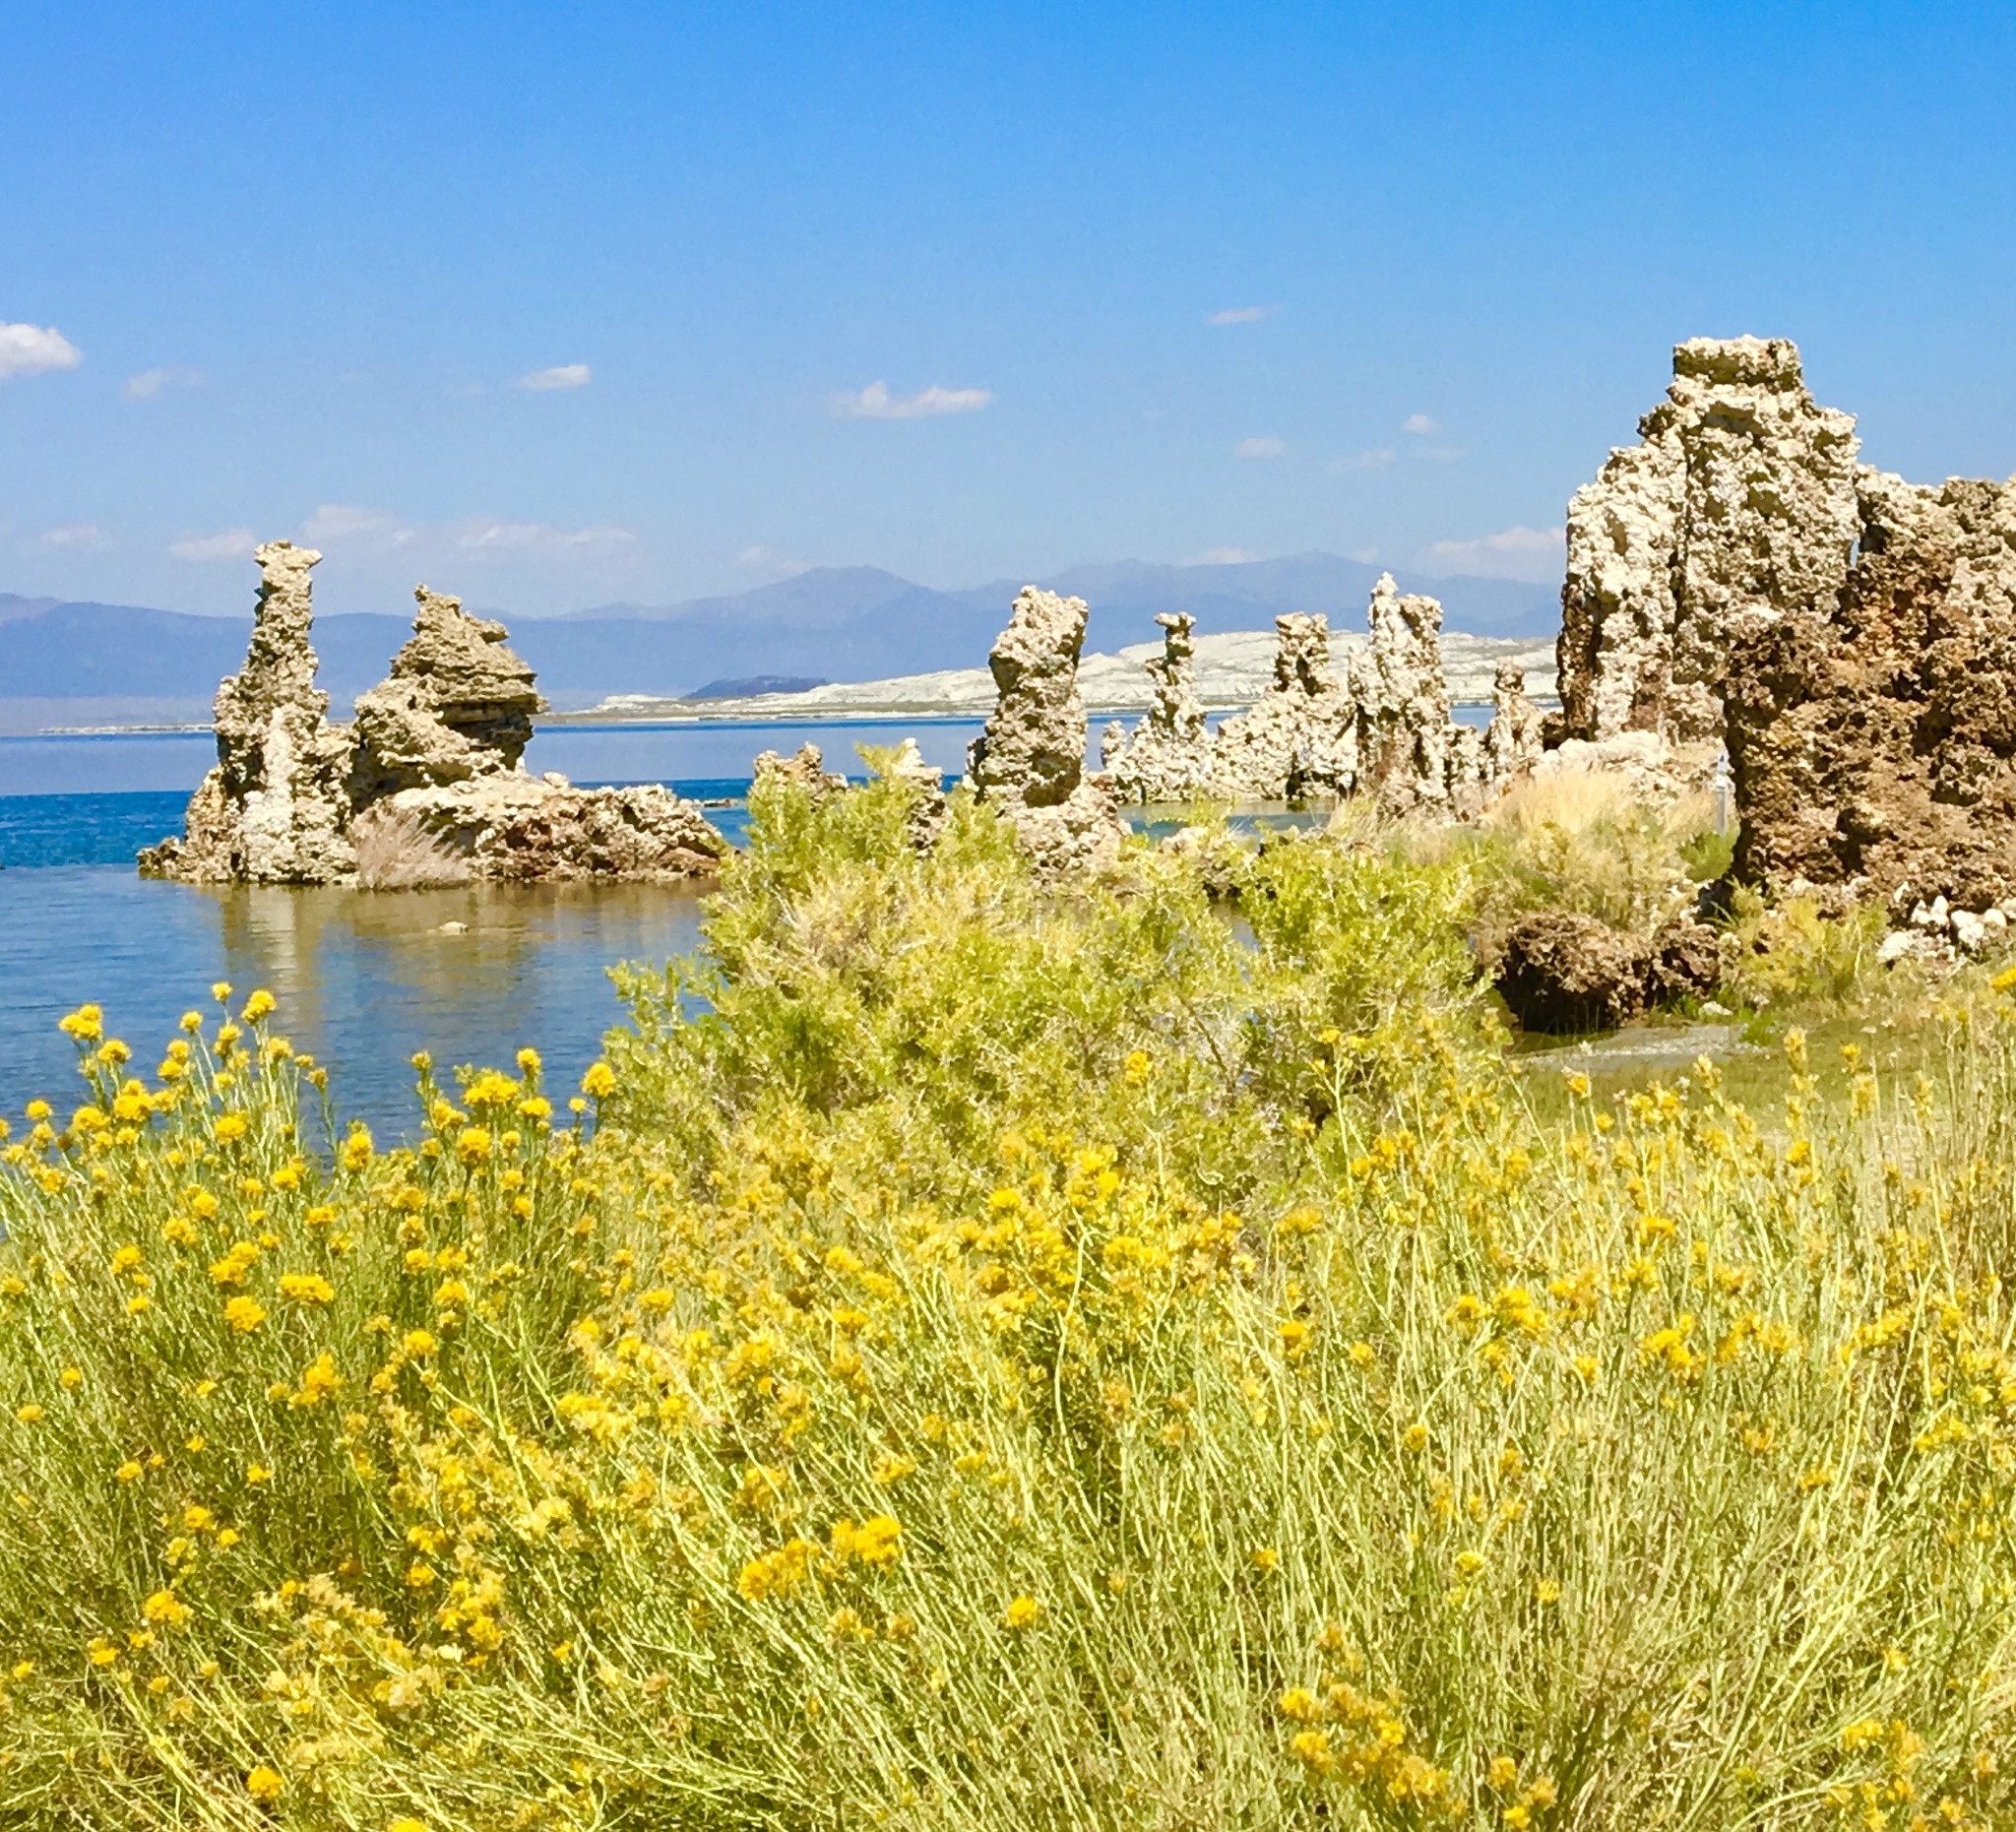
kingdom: Plantae
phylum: Tracheophyta
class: Magnoliopsida
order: Asterales
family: Asteraceae
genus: Ericameria
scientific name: Ericameria nauseosa
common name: Rubber rabbitbrush
